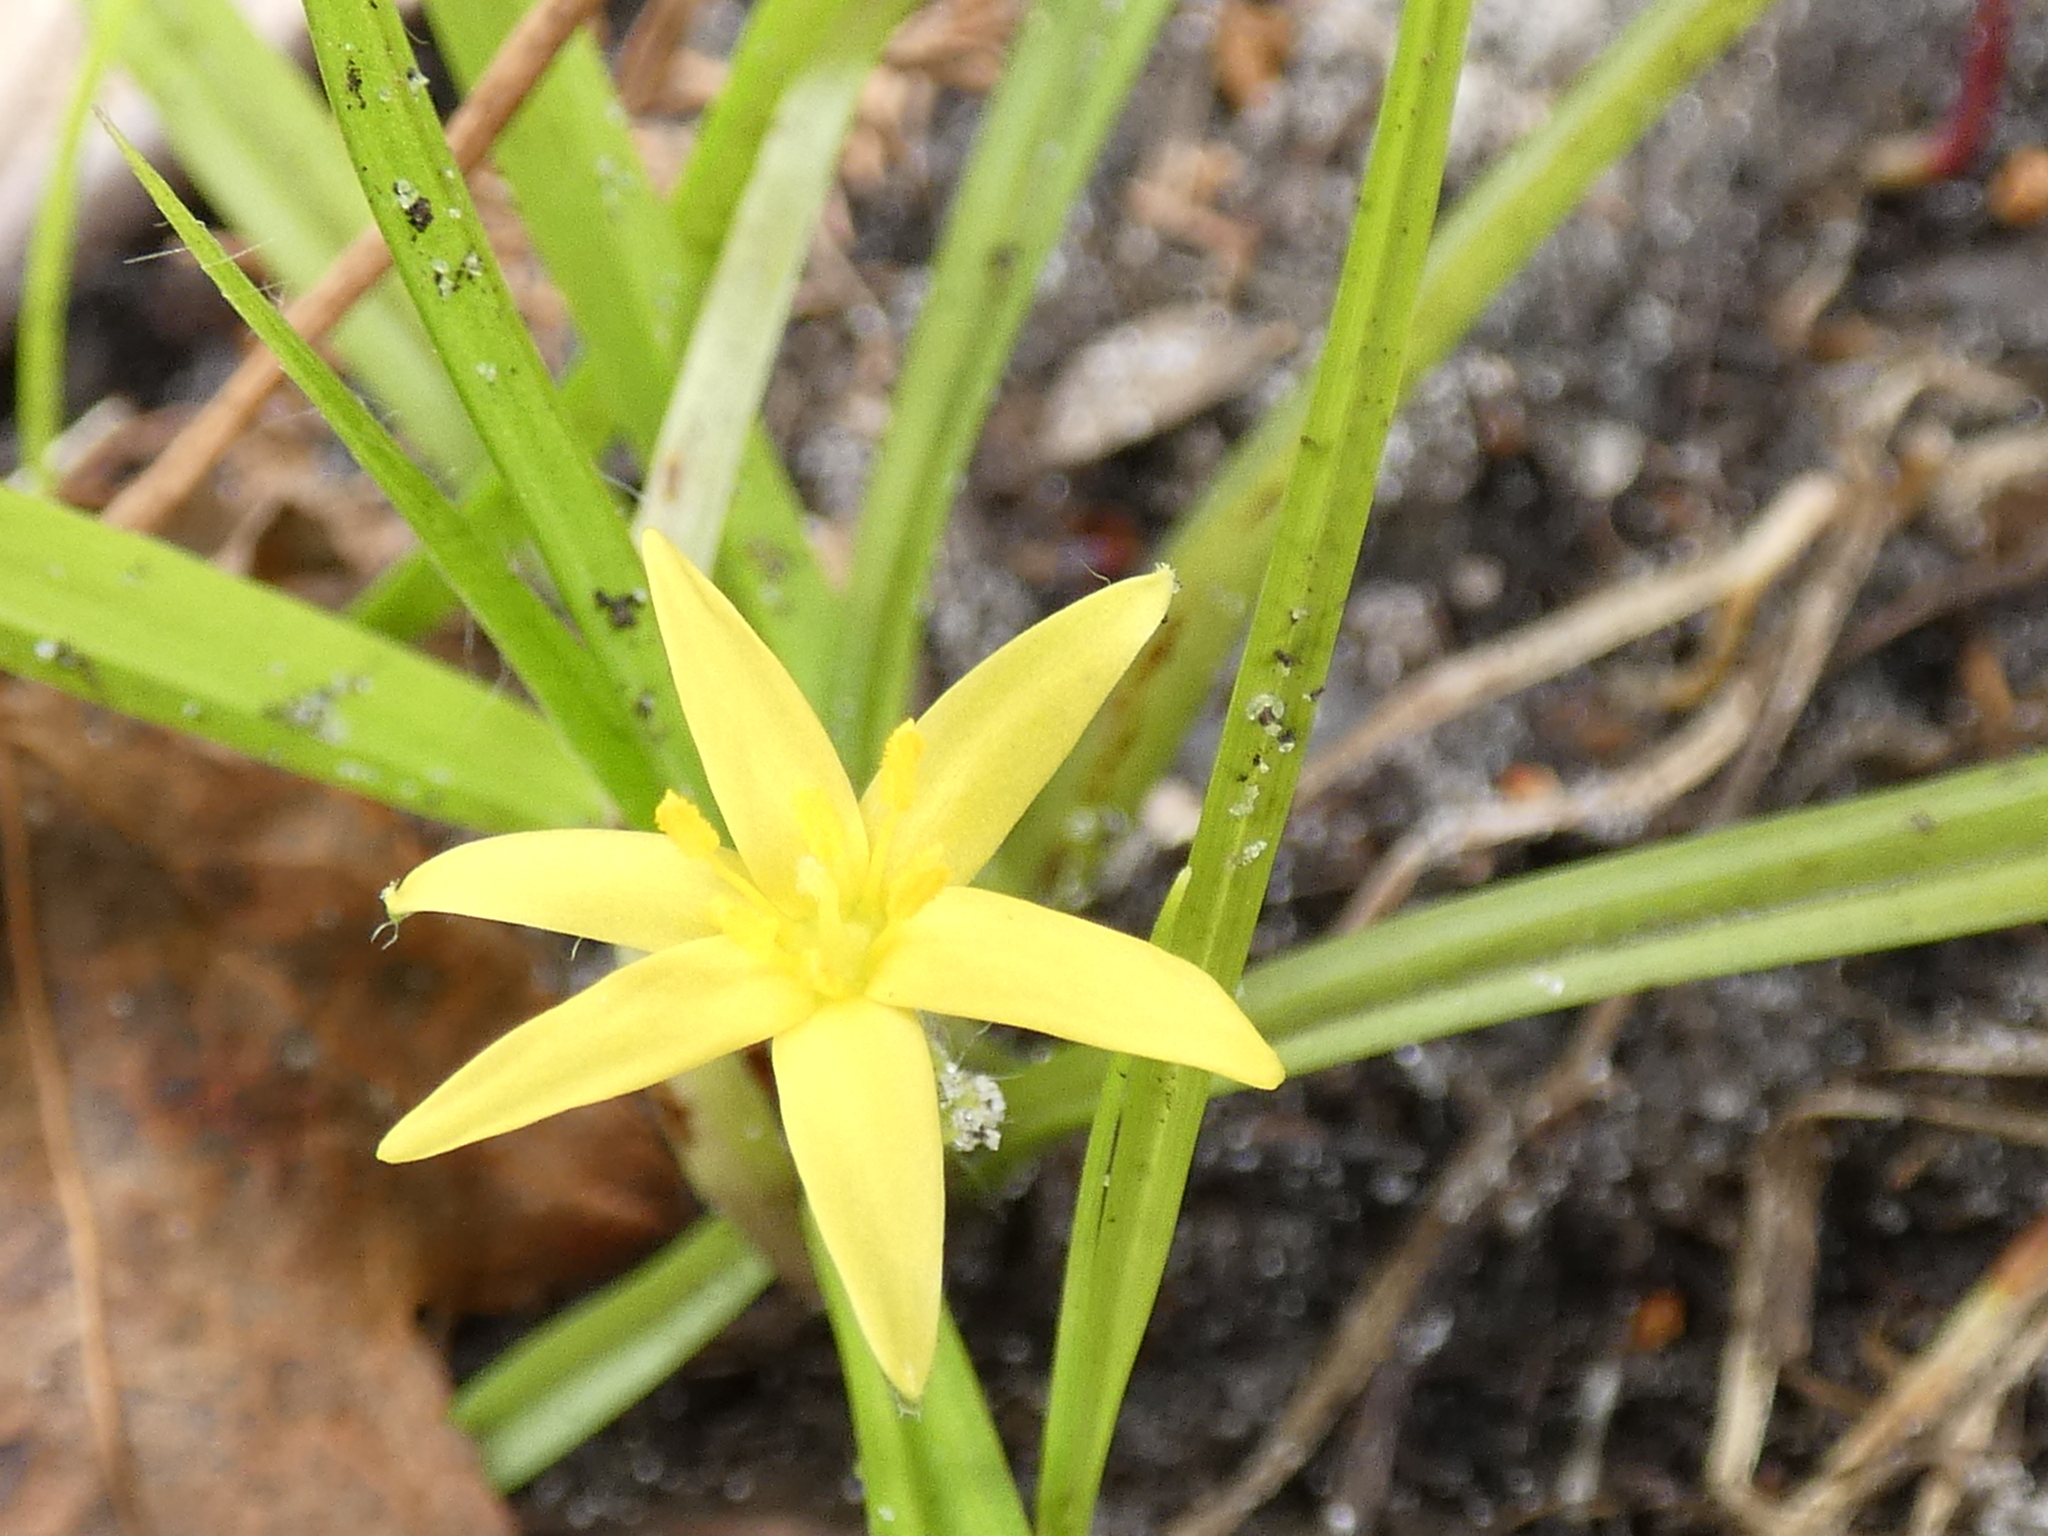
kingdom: Plantae
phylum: Tracheophyta
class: Liliopsida
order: Asparagales
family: Hypoxidaceae
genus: Hypoxis
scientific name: Hypoxis curtissii
